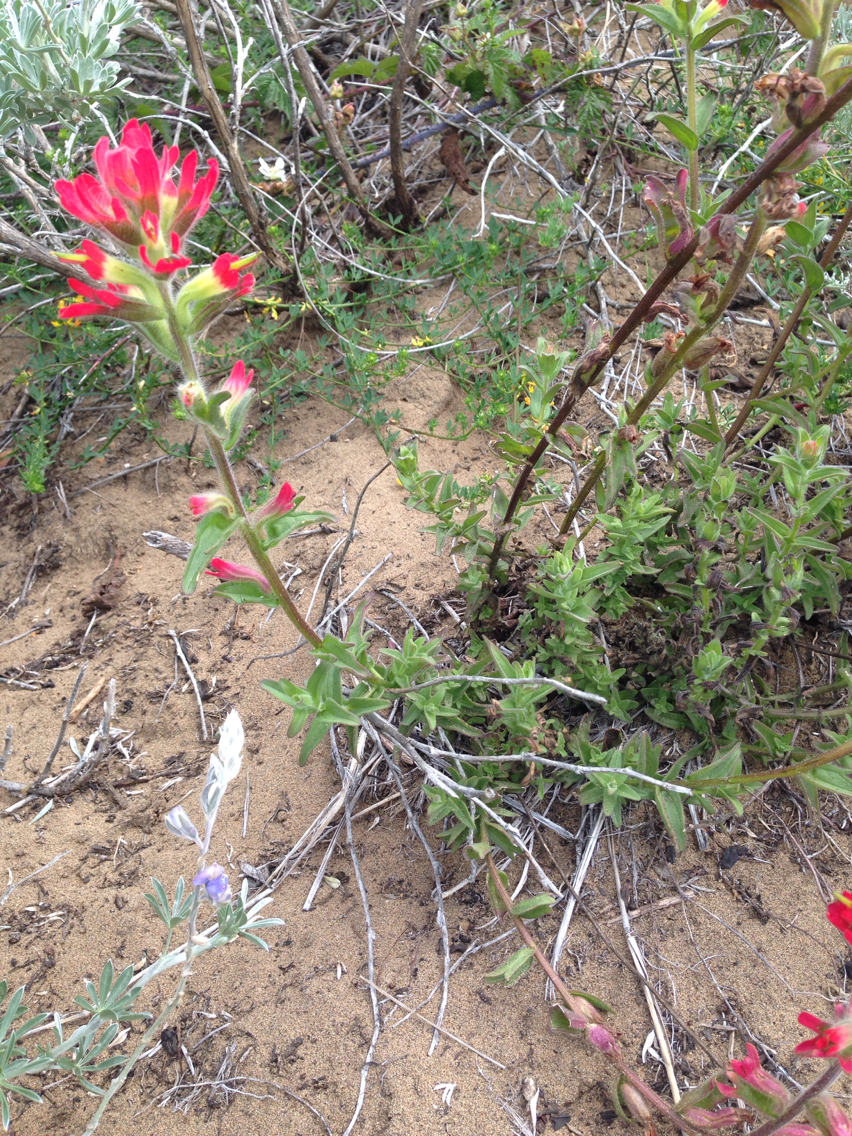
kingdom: Plantae
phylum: Tracheophyta
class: Magnoliopsida
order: Lamiales
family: Orobanchaceae
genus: Castilleja
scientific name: Castilleja affinis
